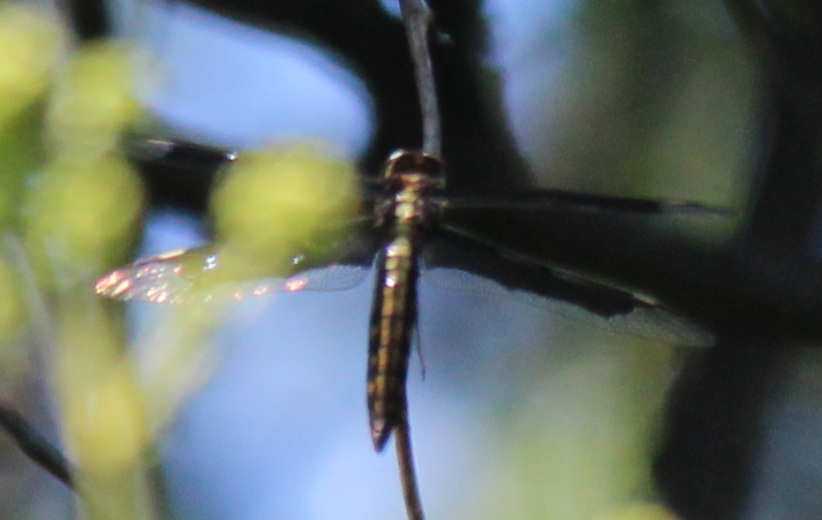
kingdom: Animalia
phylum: Arthropoda
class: Insecta
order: Odonata
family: Libellulidae
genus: Palpopleura
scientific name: Palpopleura lucia
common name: Lucia widow
